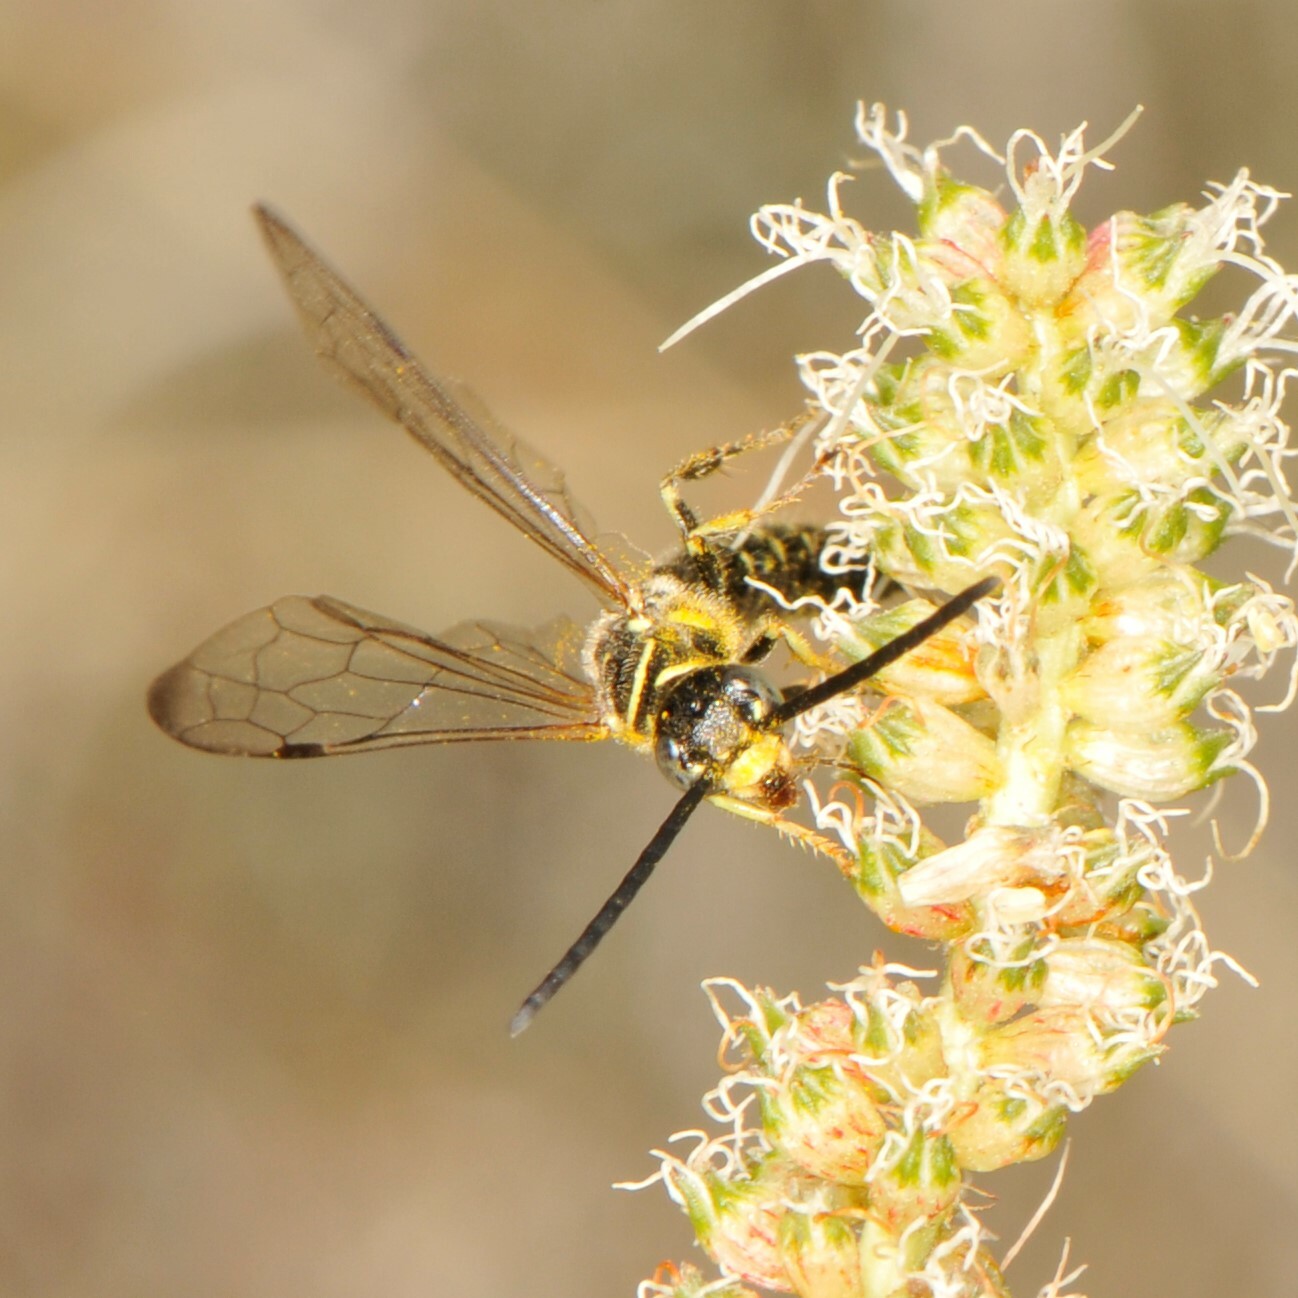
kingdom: Animalia
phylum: Arthropoda
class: Insecta
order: Hymenoptera
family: Tiphiidae
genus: Myzinum
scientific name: Myzinum
